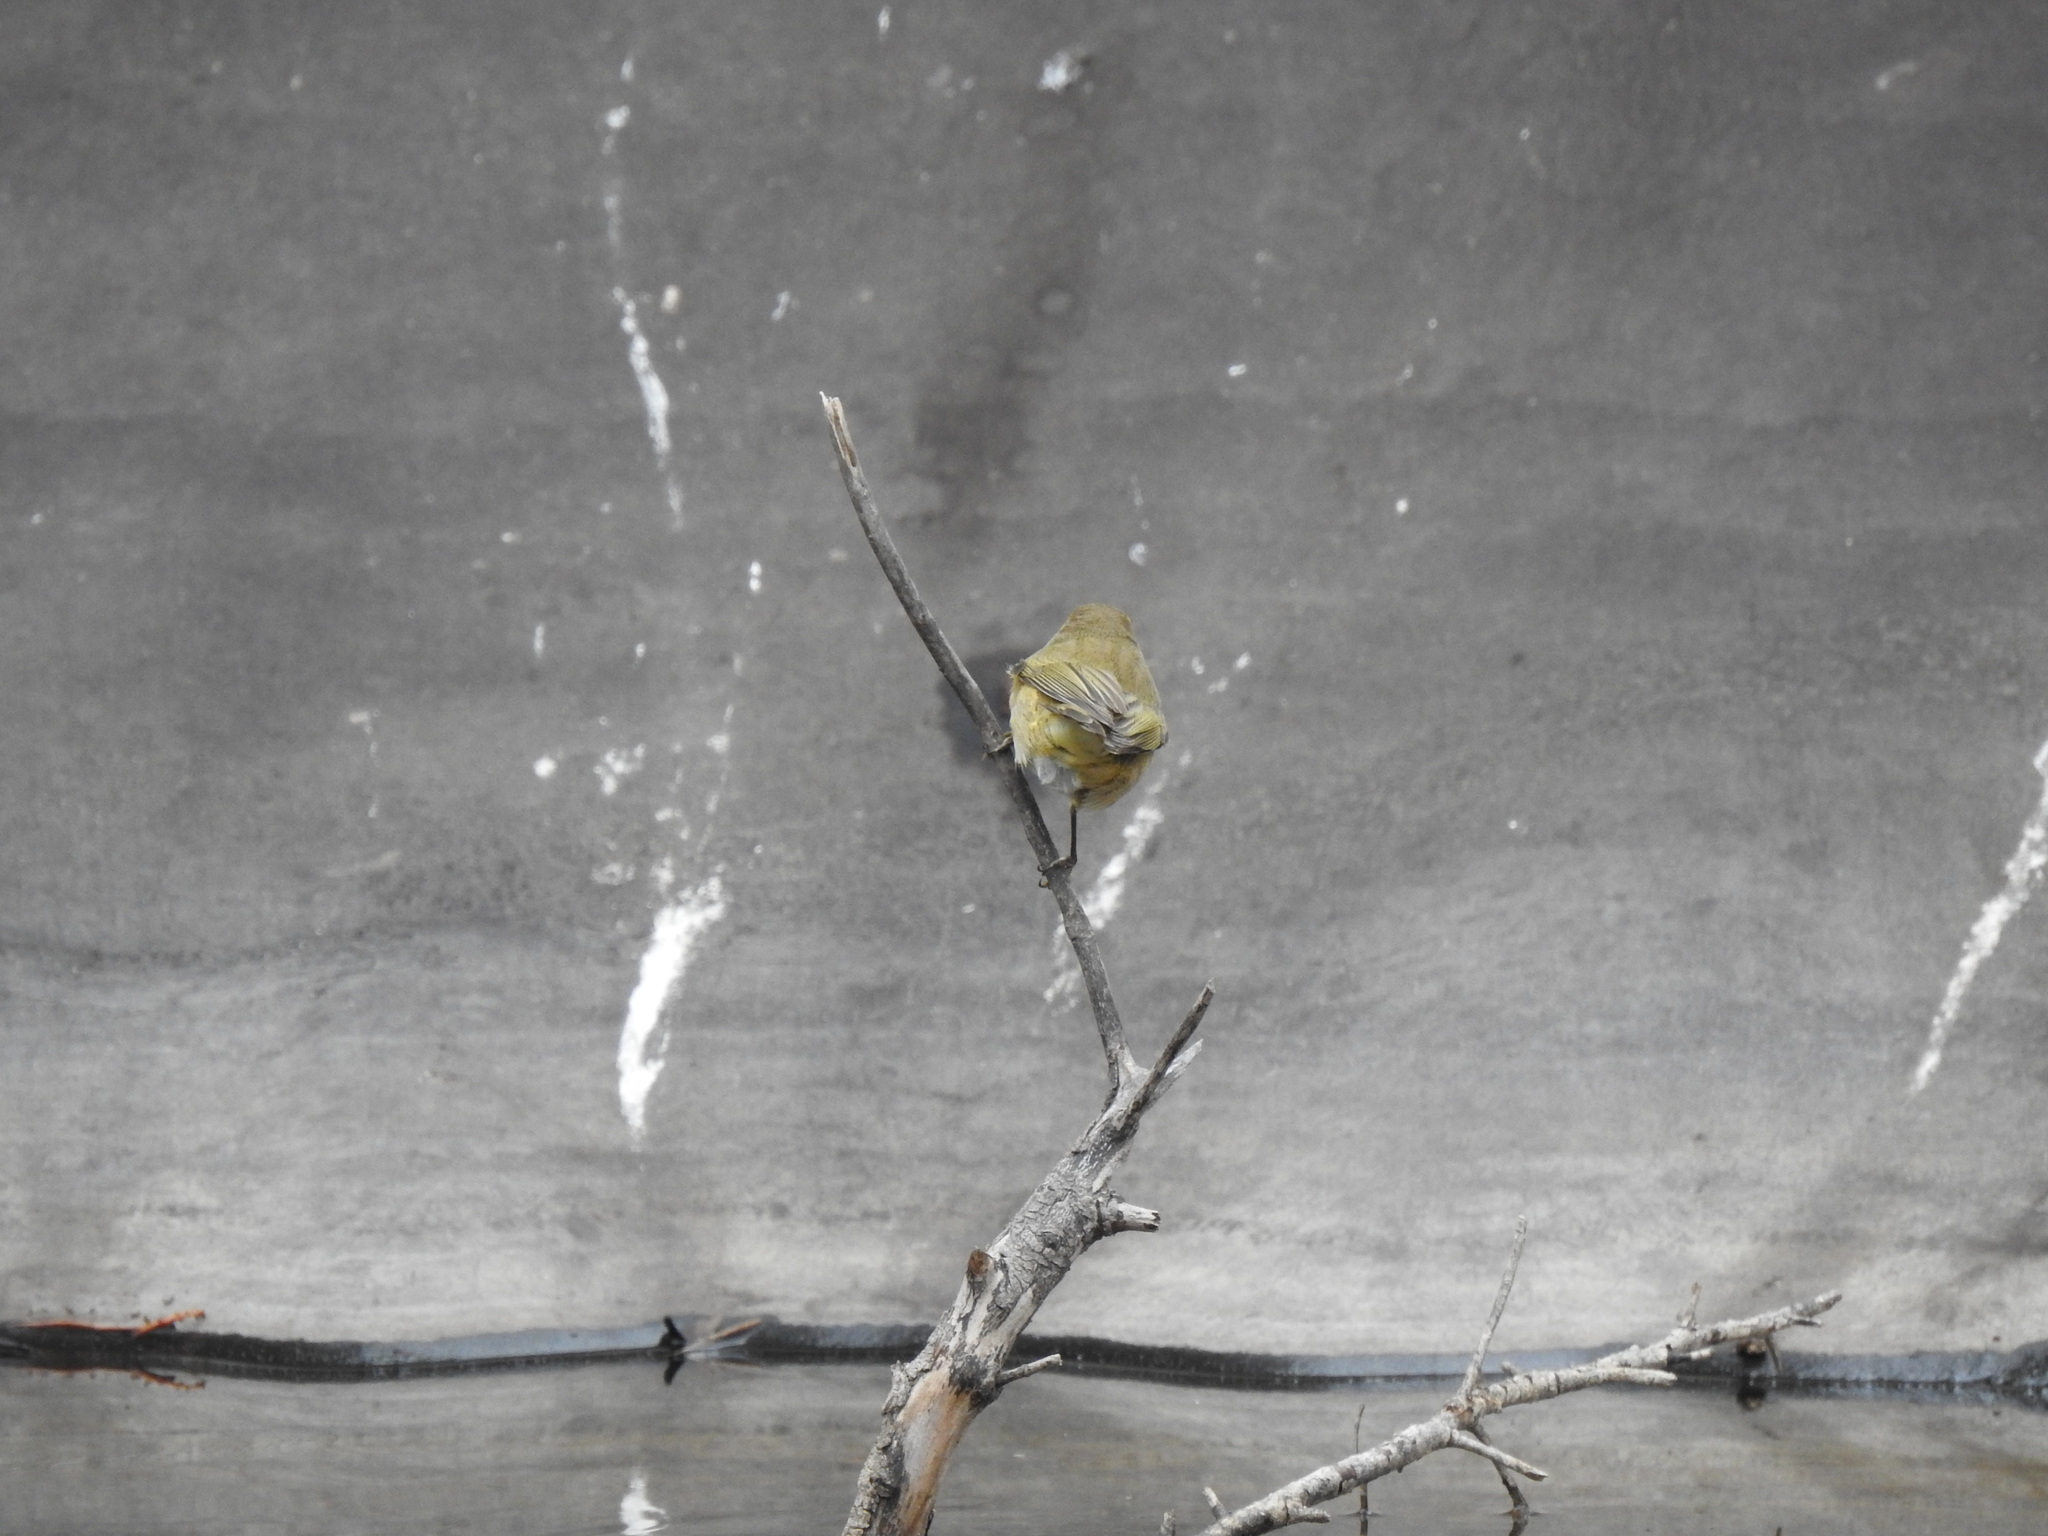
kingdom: Animalia
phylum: Chordata
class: Aves
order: Passeriformes
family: Phylloscopidae
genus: Phylloscopus
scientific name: Phylloscopus collybita
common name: Common chiffchaff
